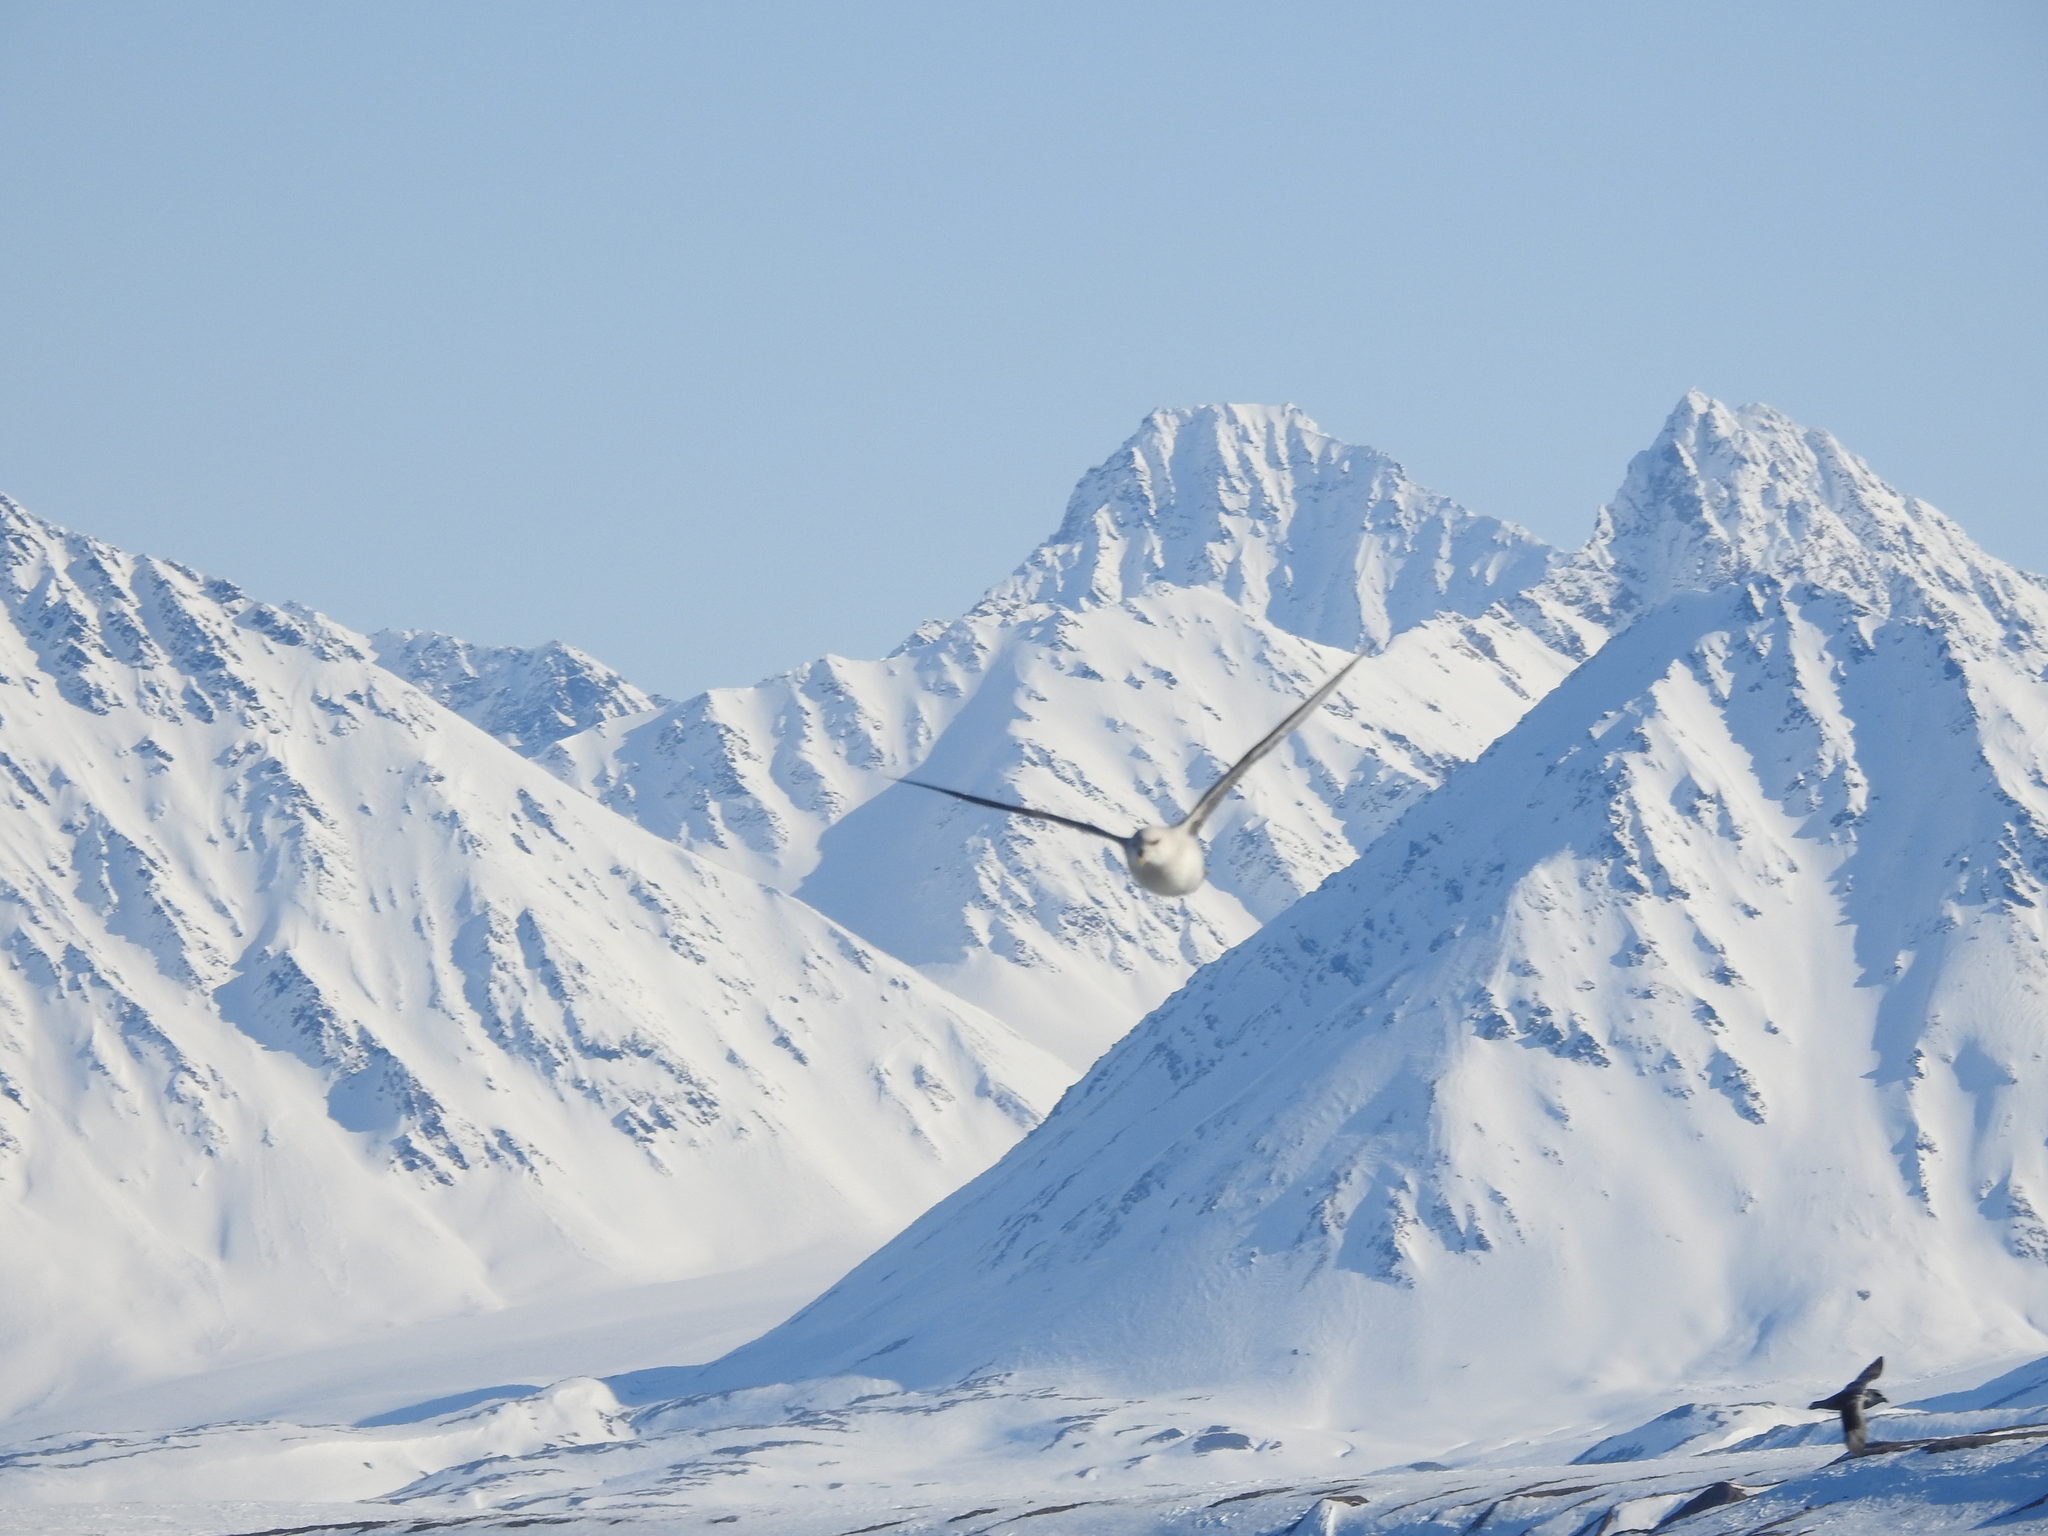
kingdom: Animalia
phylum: Chordata
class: Aves
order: Procellariiformes
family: Procellariidae
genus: Fulmarus
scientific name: Fulmarus glacialis
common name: Northern fulmar
